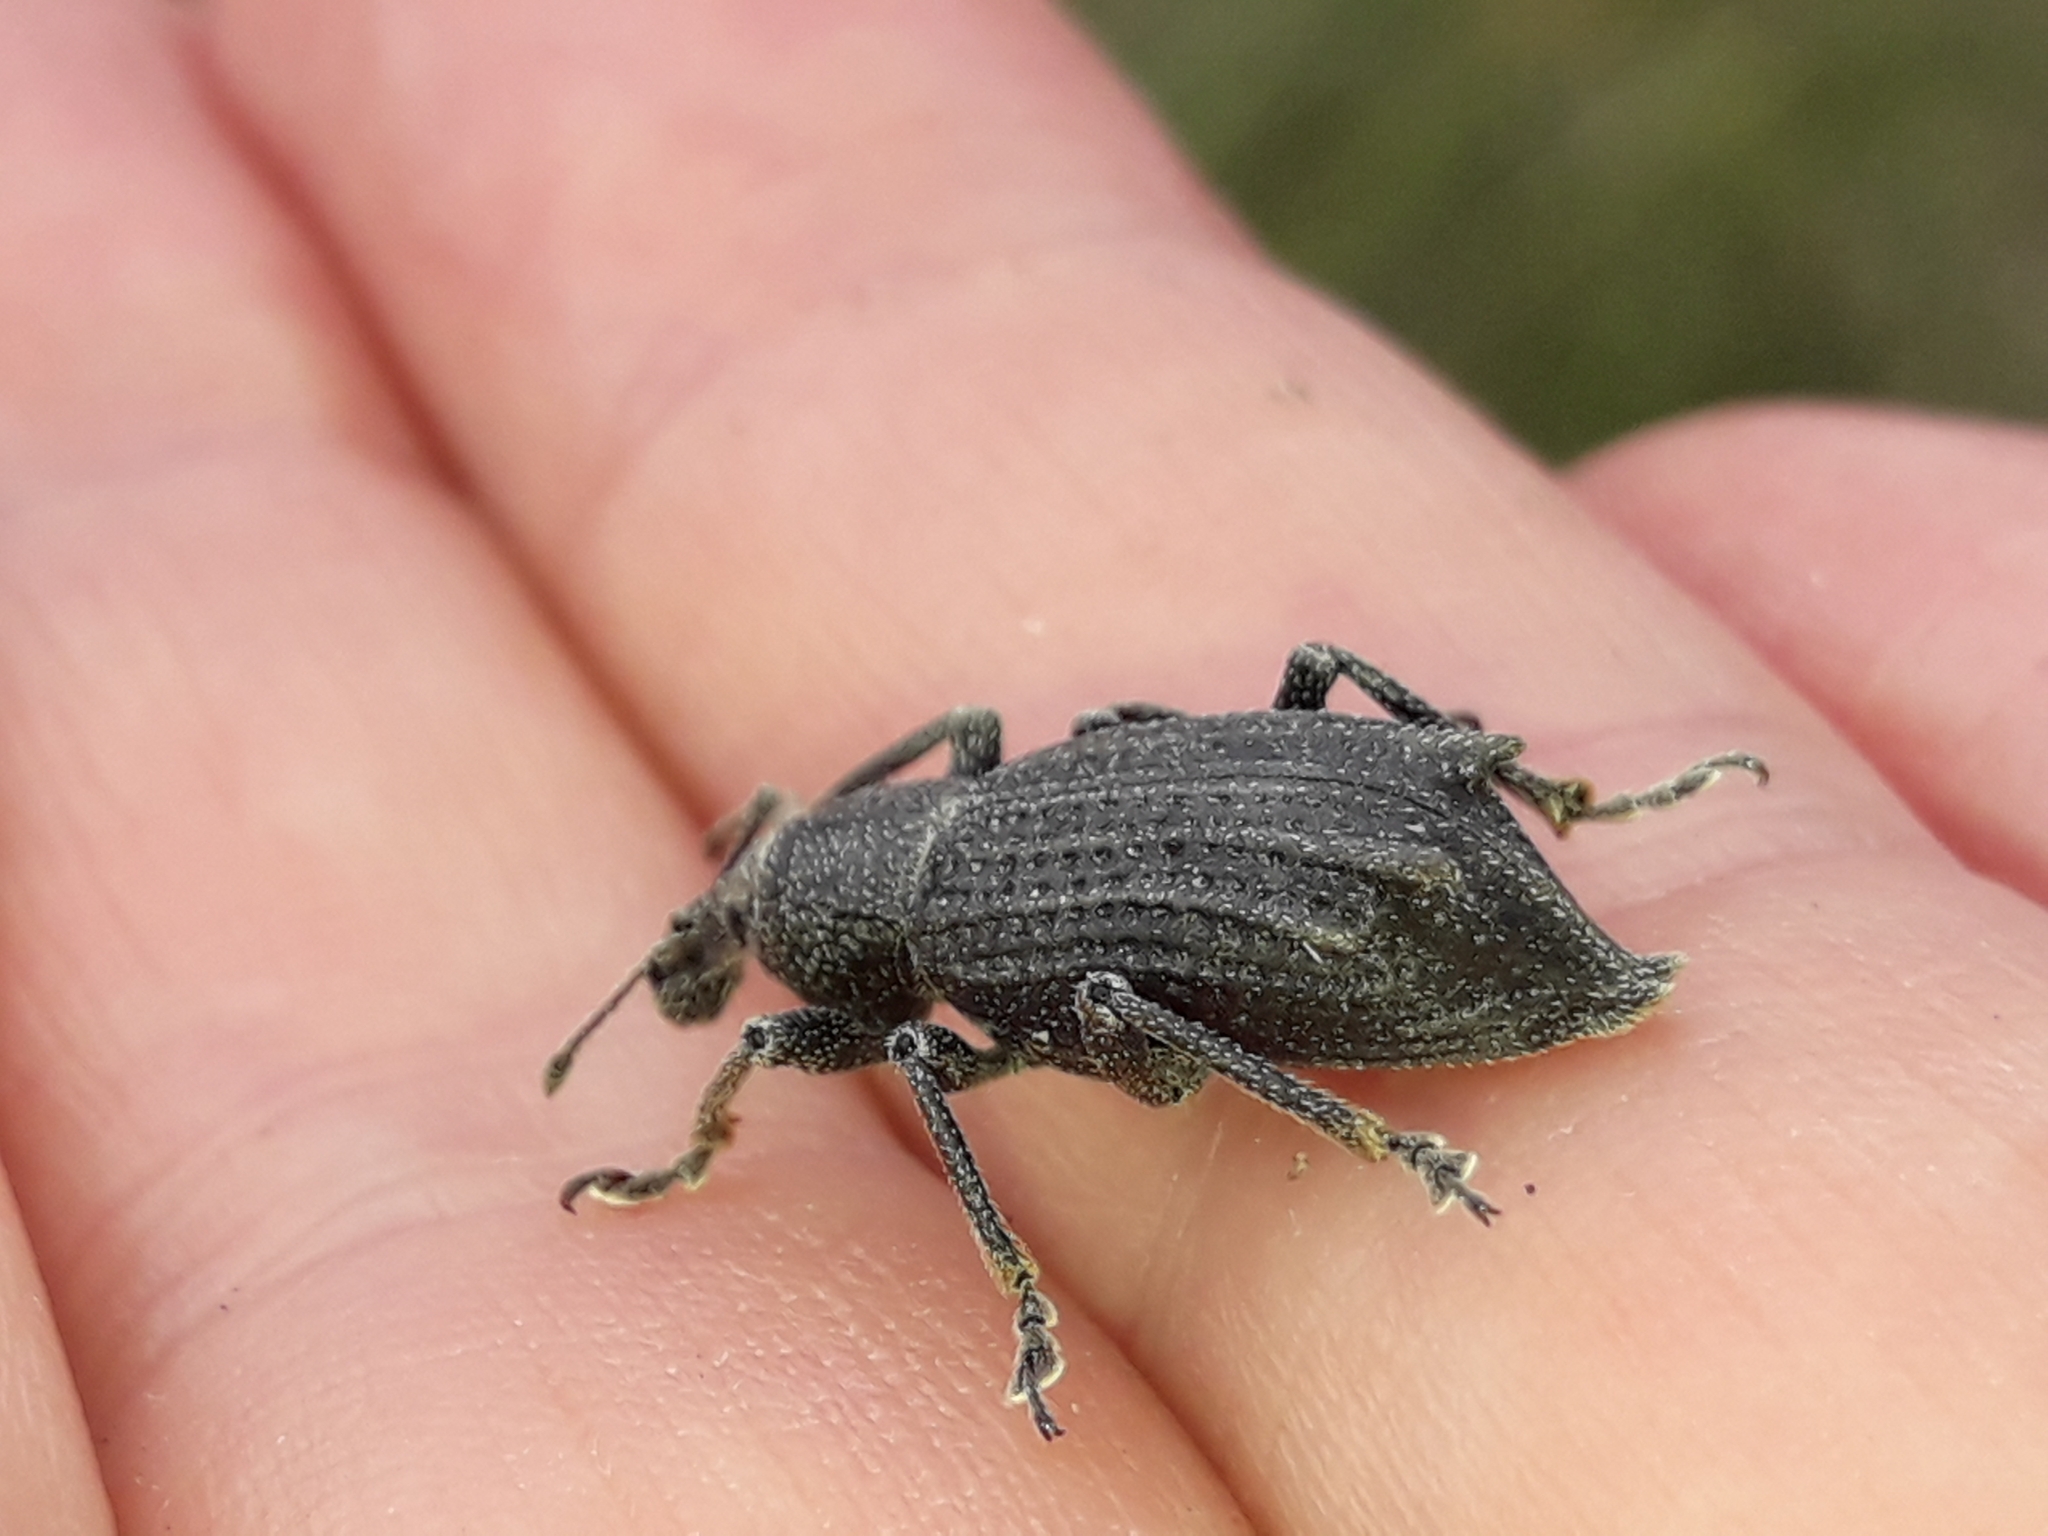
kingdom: Animalia
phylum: Arthropoda
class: Insecta
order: Coleoptera
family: Curculionidae
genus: Inophloeus
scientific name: Inophloeus inuus
